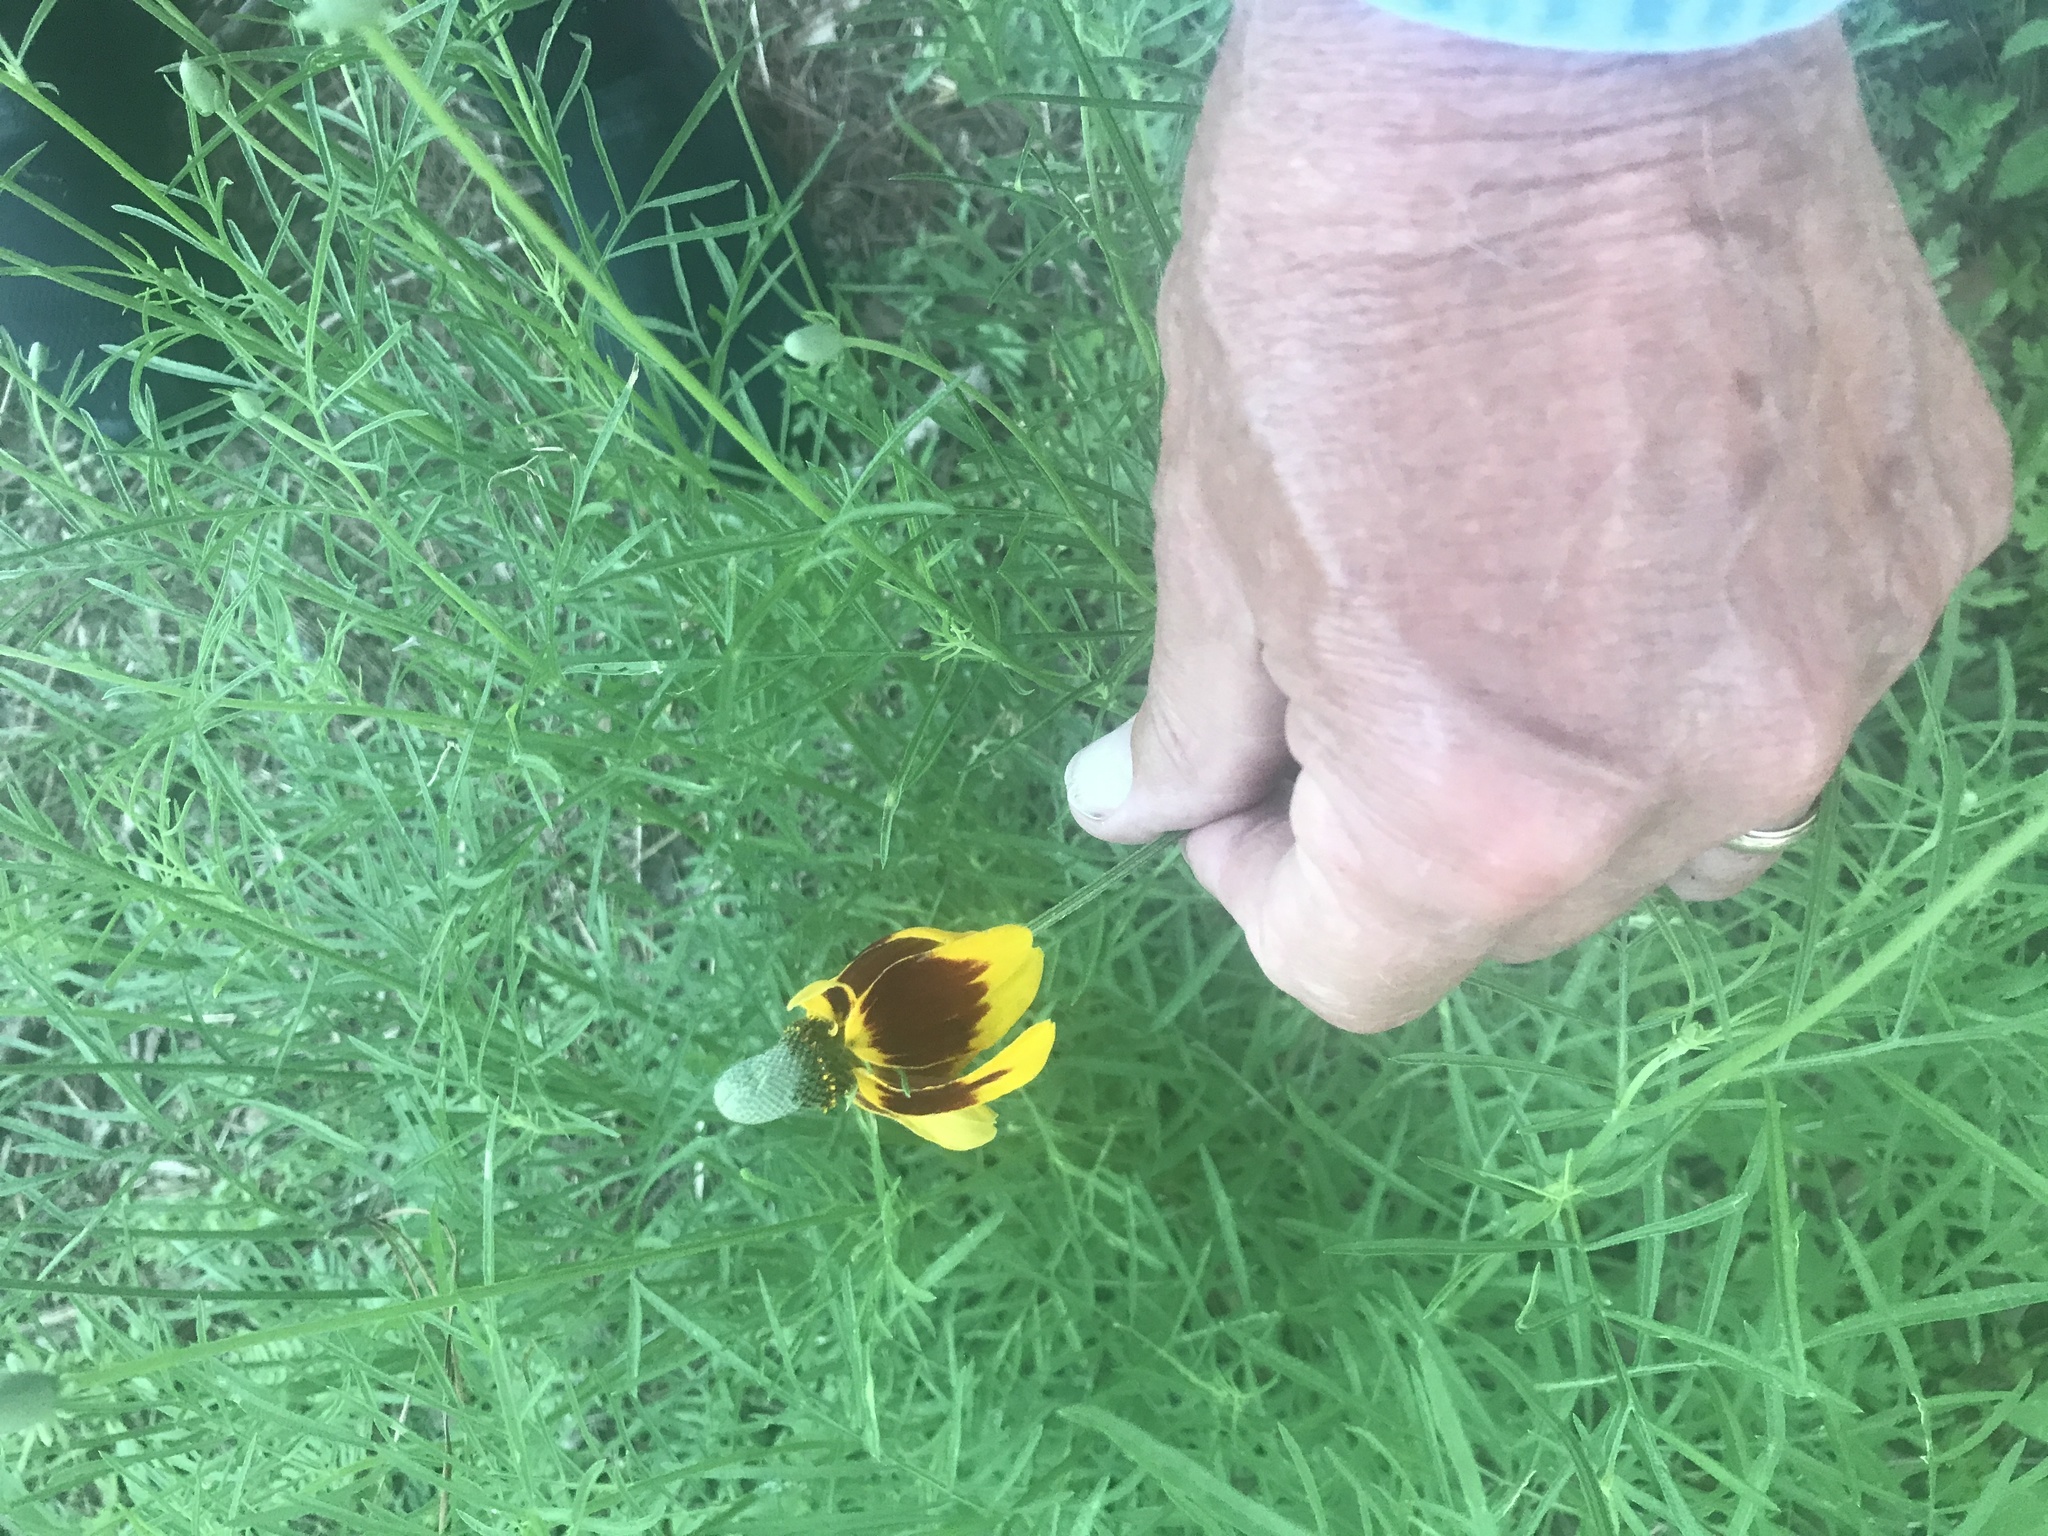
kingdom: Plantae
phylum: Tracheophyta
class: Magnoliopsida
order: Asterales
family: Asteraceae
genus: Ratibida
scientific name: Ratibida columnifera
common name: Prairie coneflower
